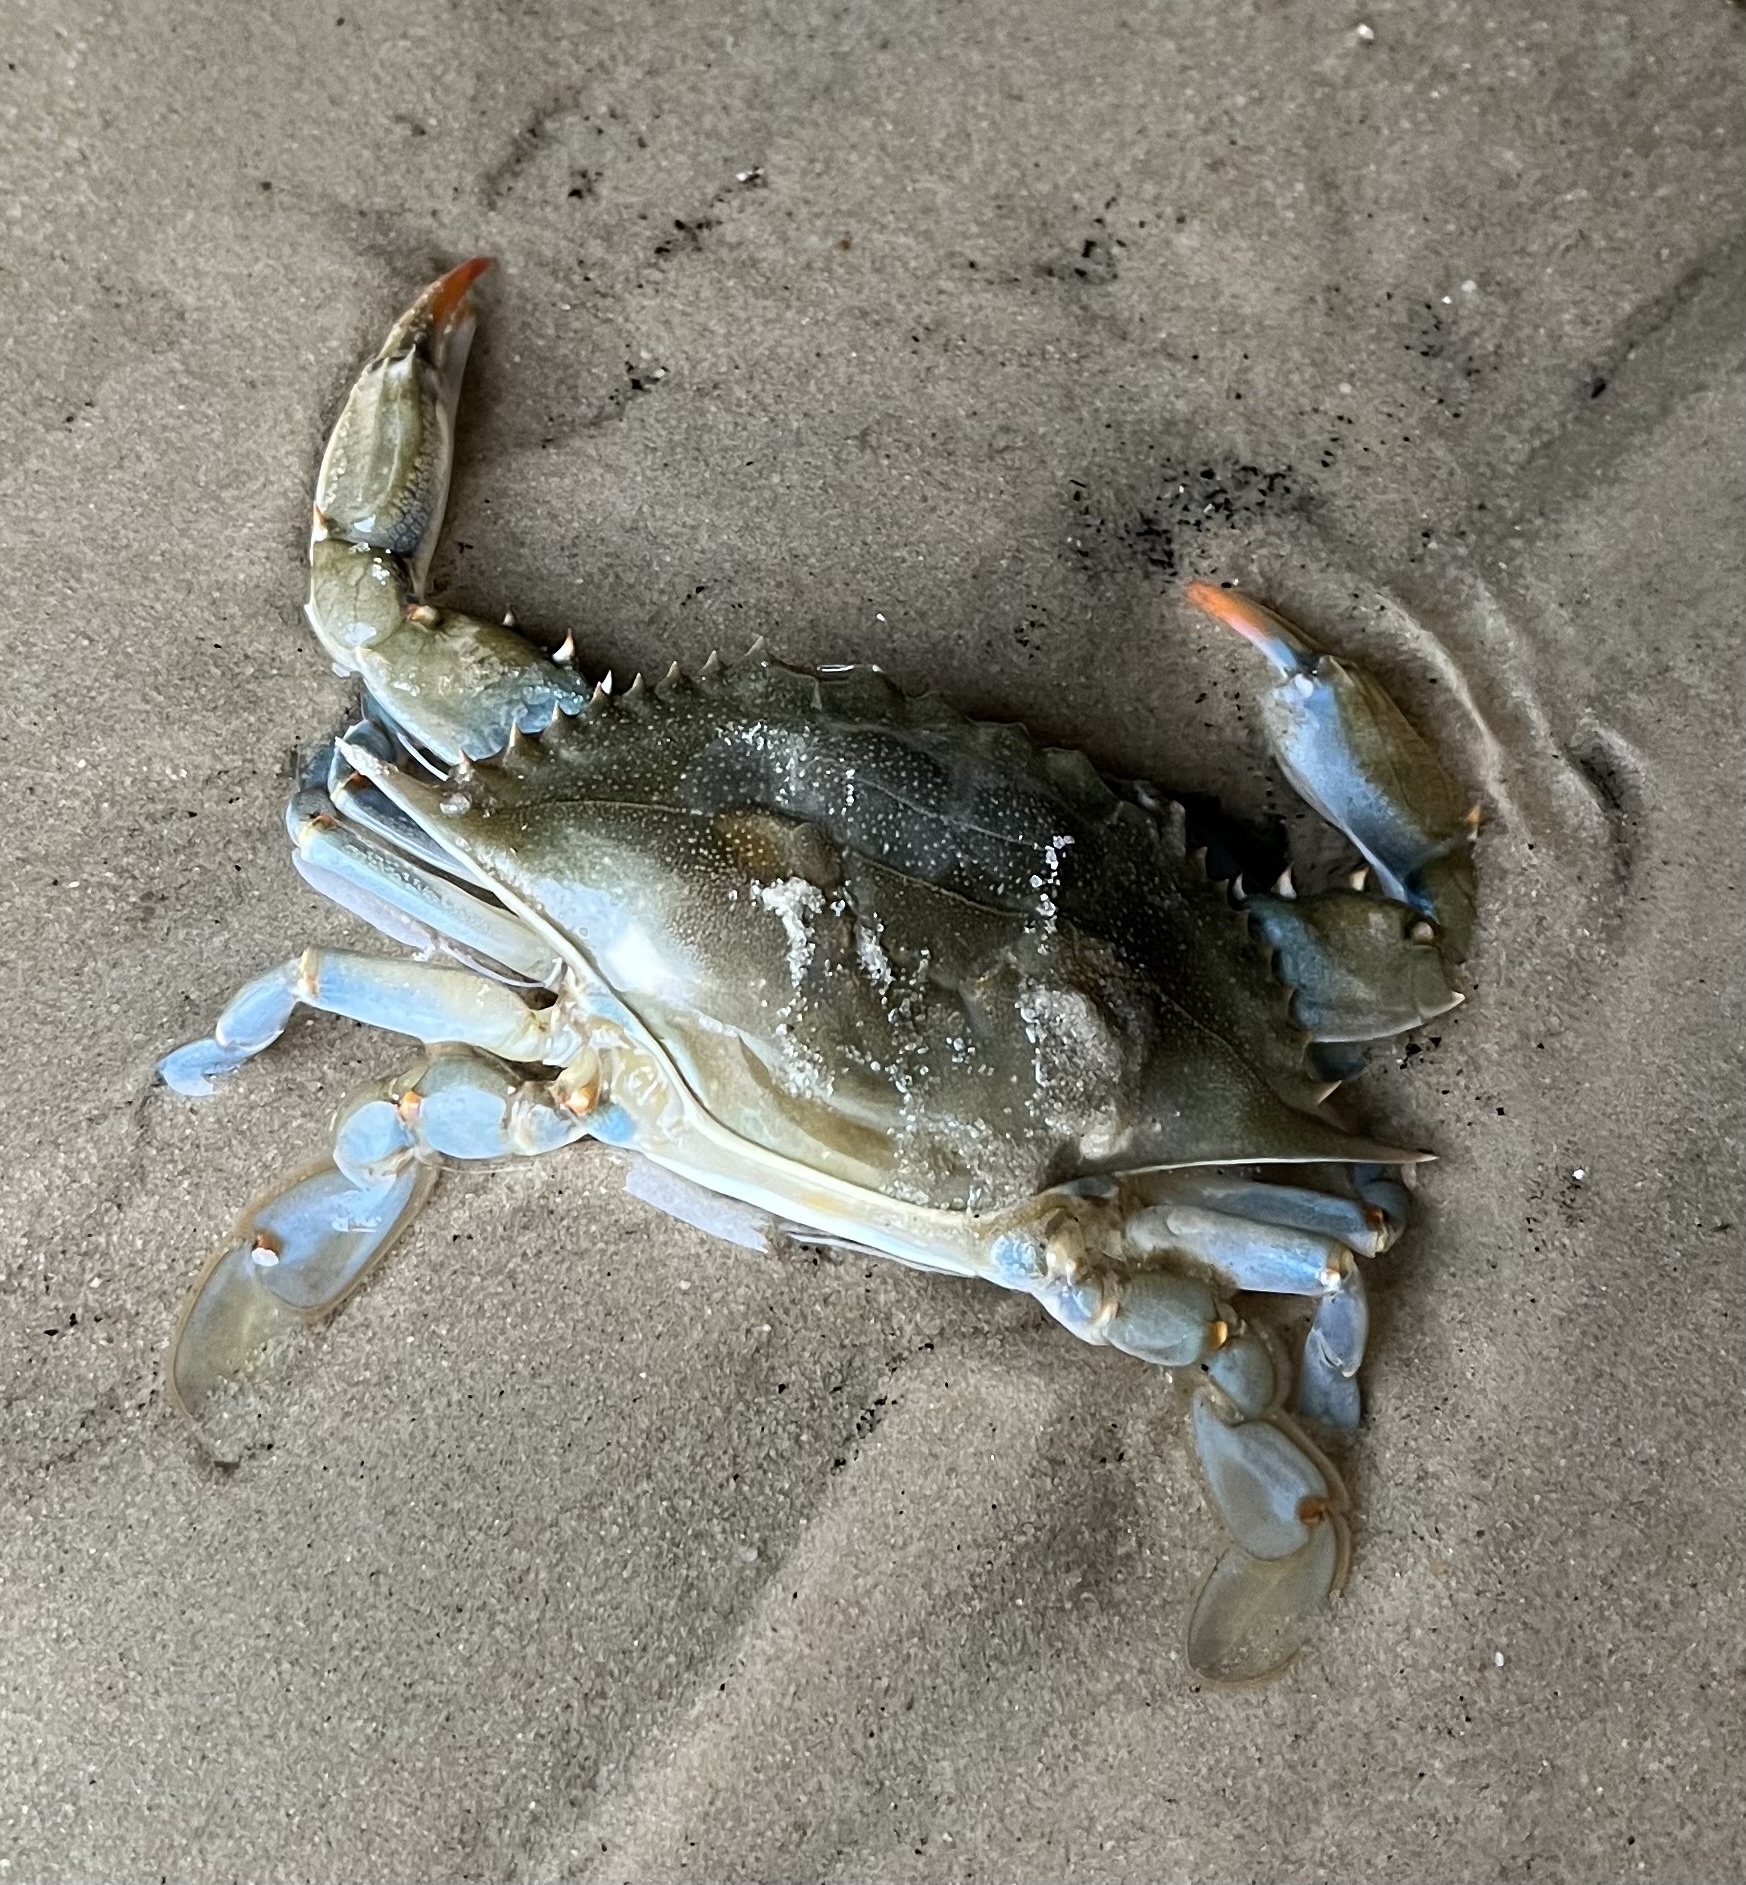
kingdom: Animalia
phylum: Arthropoda
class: Malacostraca
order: Decapoda
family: Portunidae
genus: Callinectes
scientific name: Callinectes sapidus
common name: Blue crab
